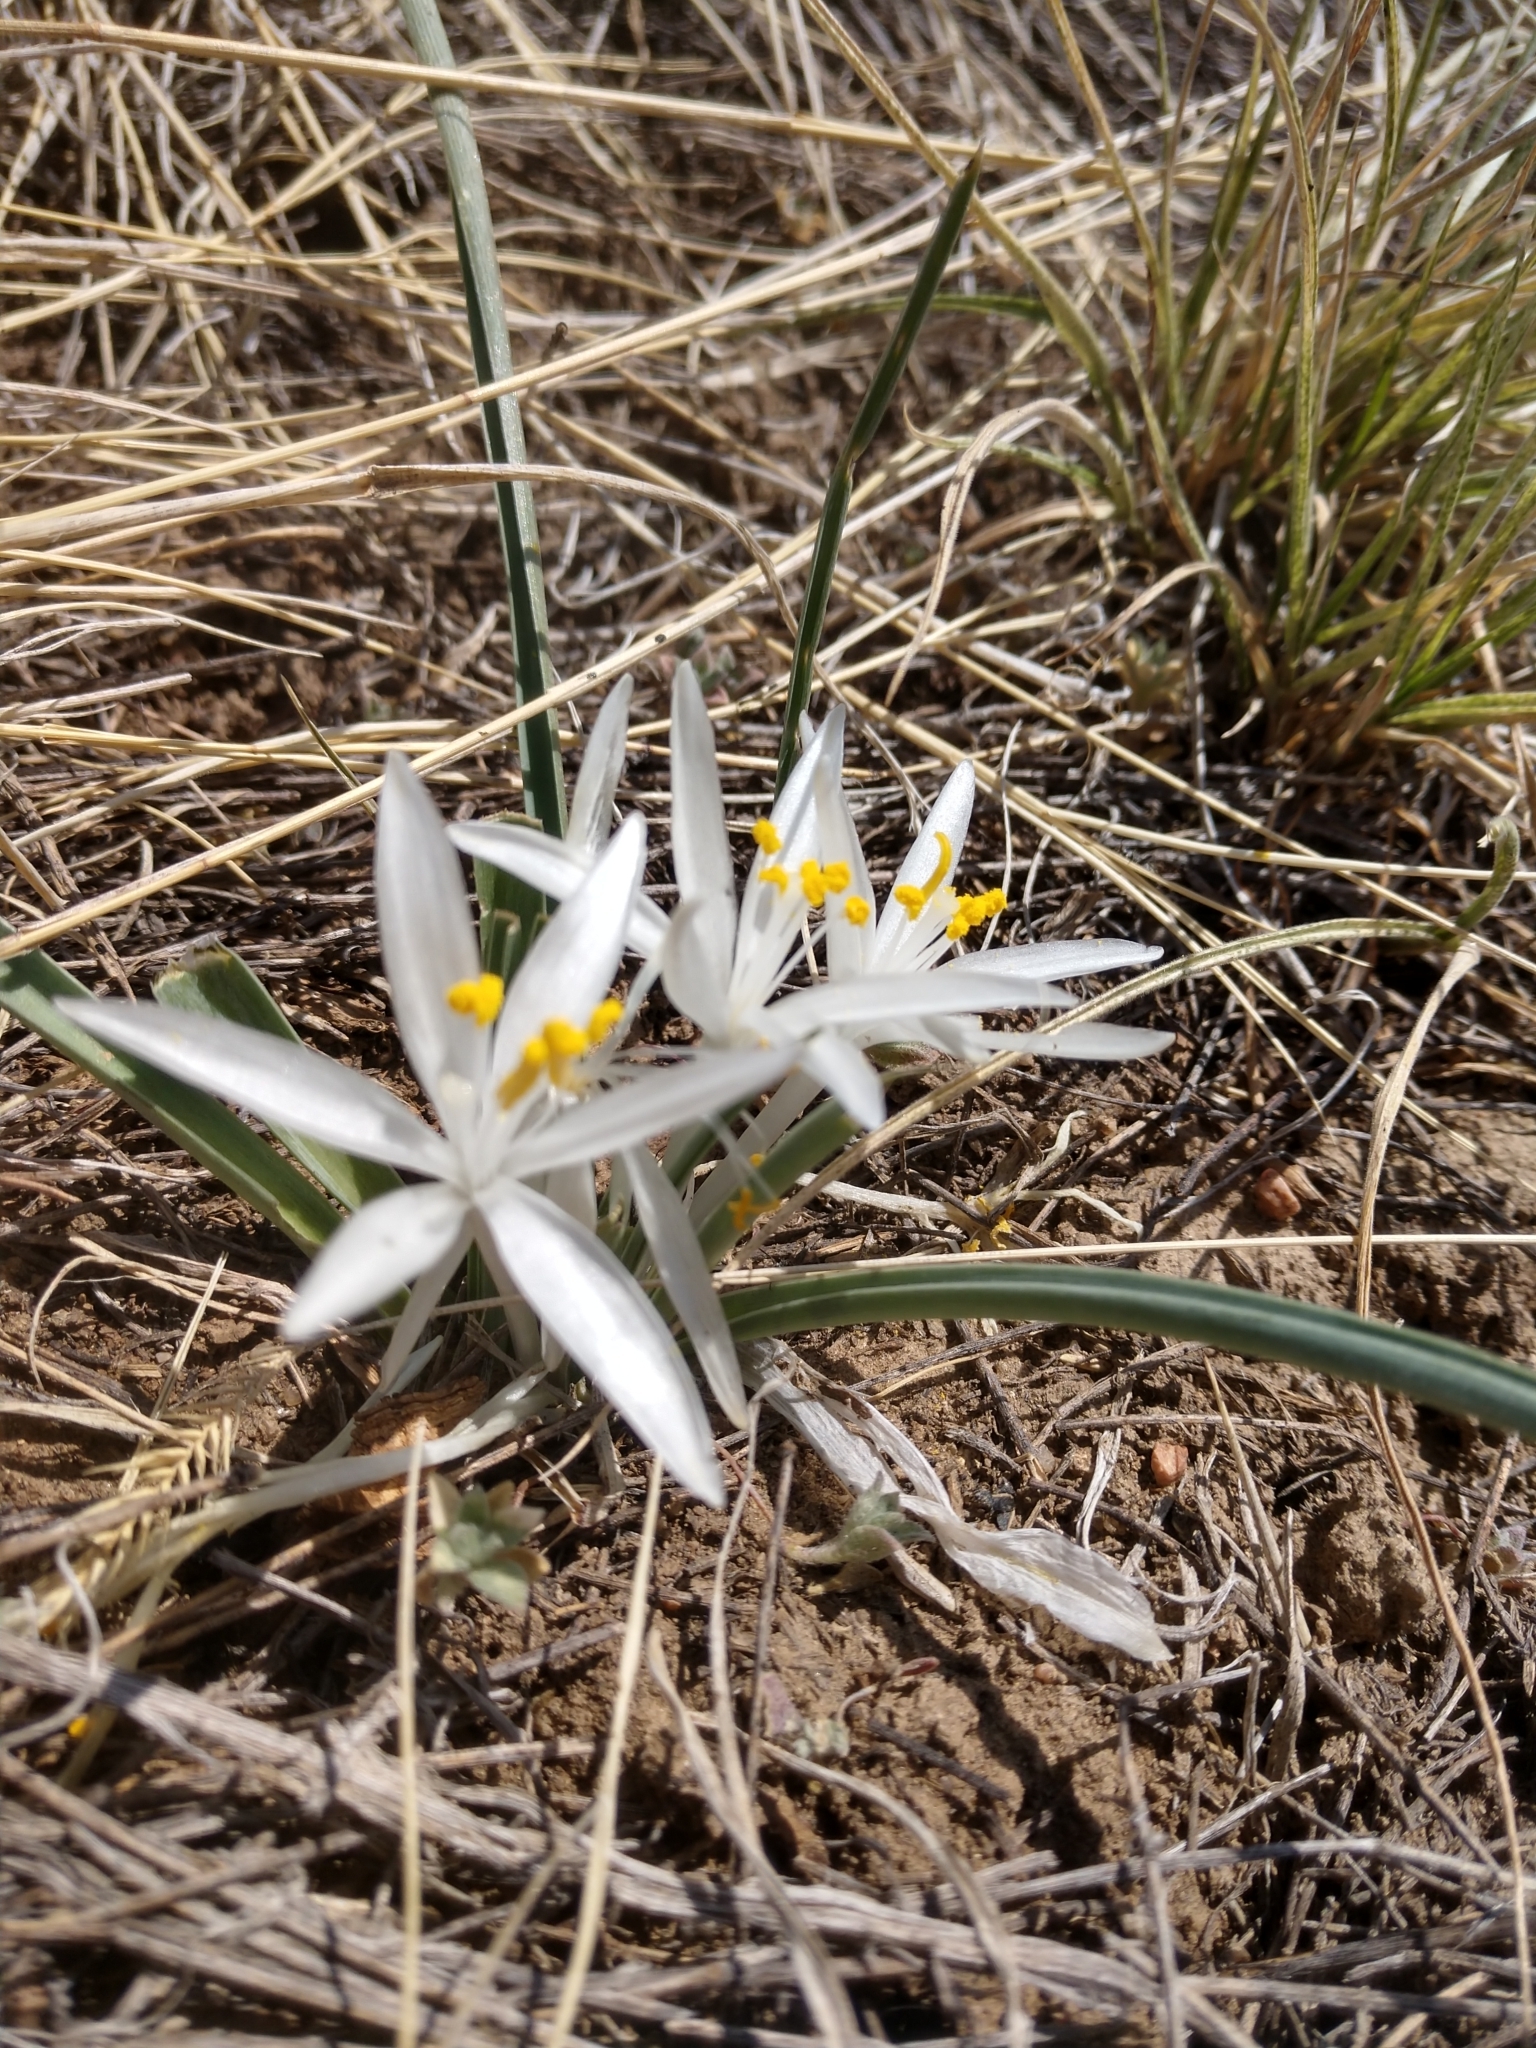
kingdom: Plantae
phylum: Tracheophyta
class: Liliopsida
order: Asparagales
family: Asparagaceae
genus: Leucocrinum
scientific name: Leucocrinum montanum
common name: Mountain-lily
